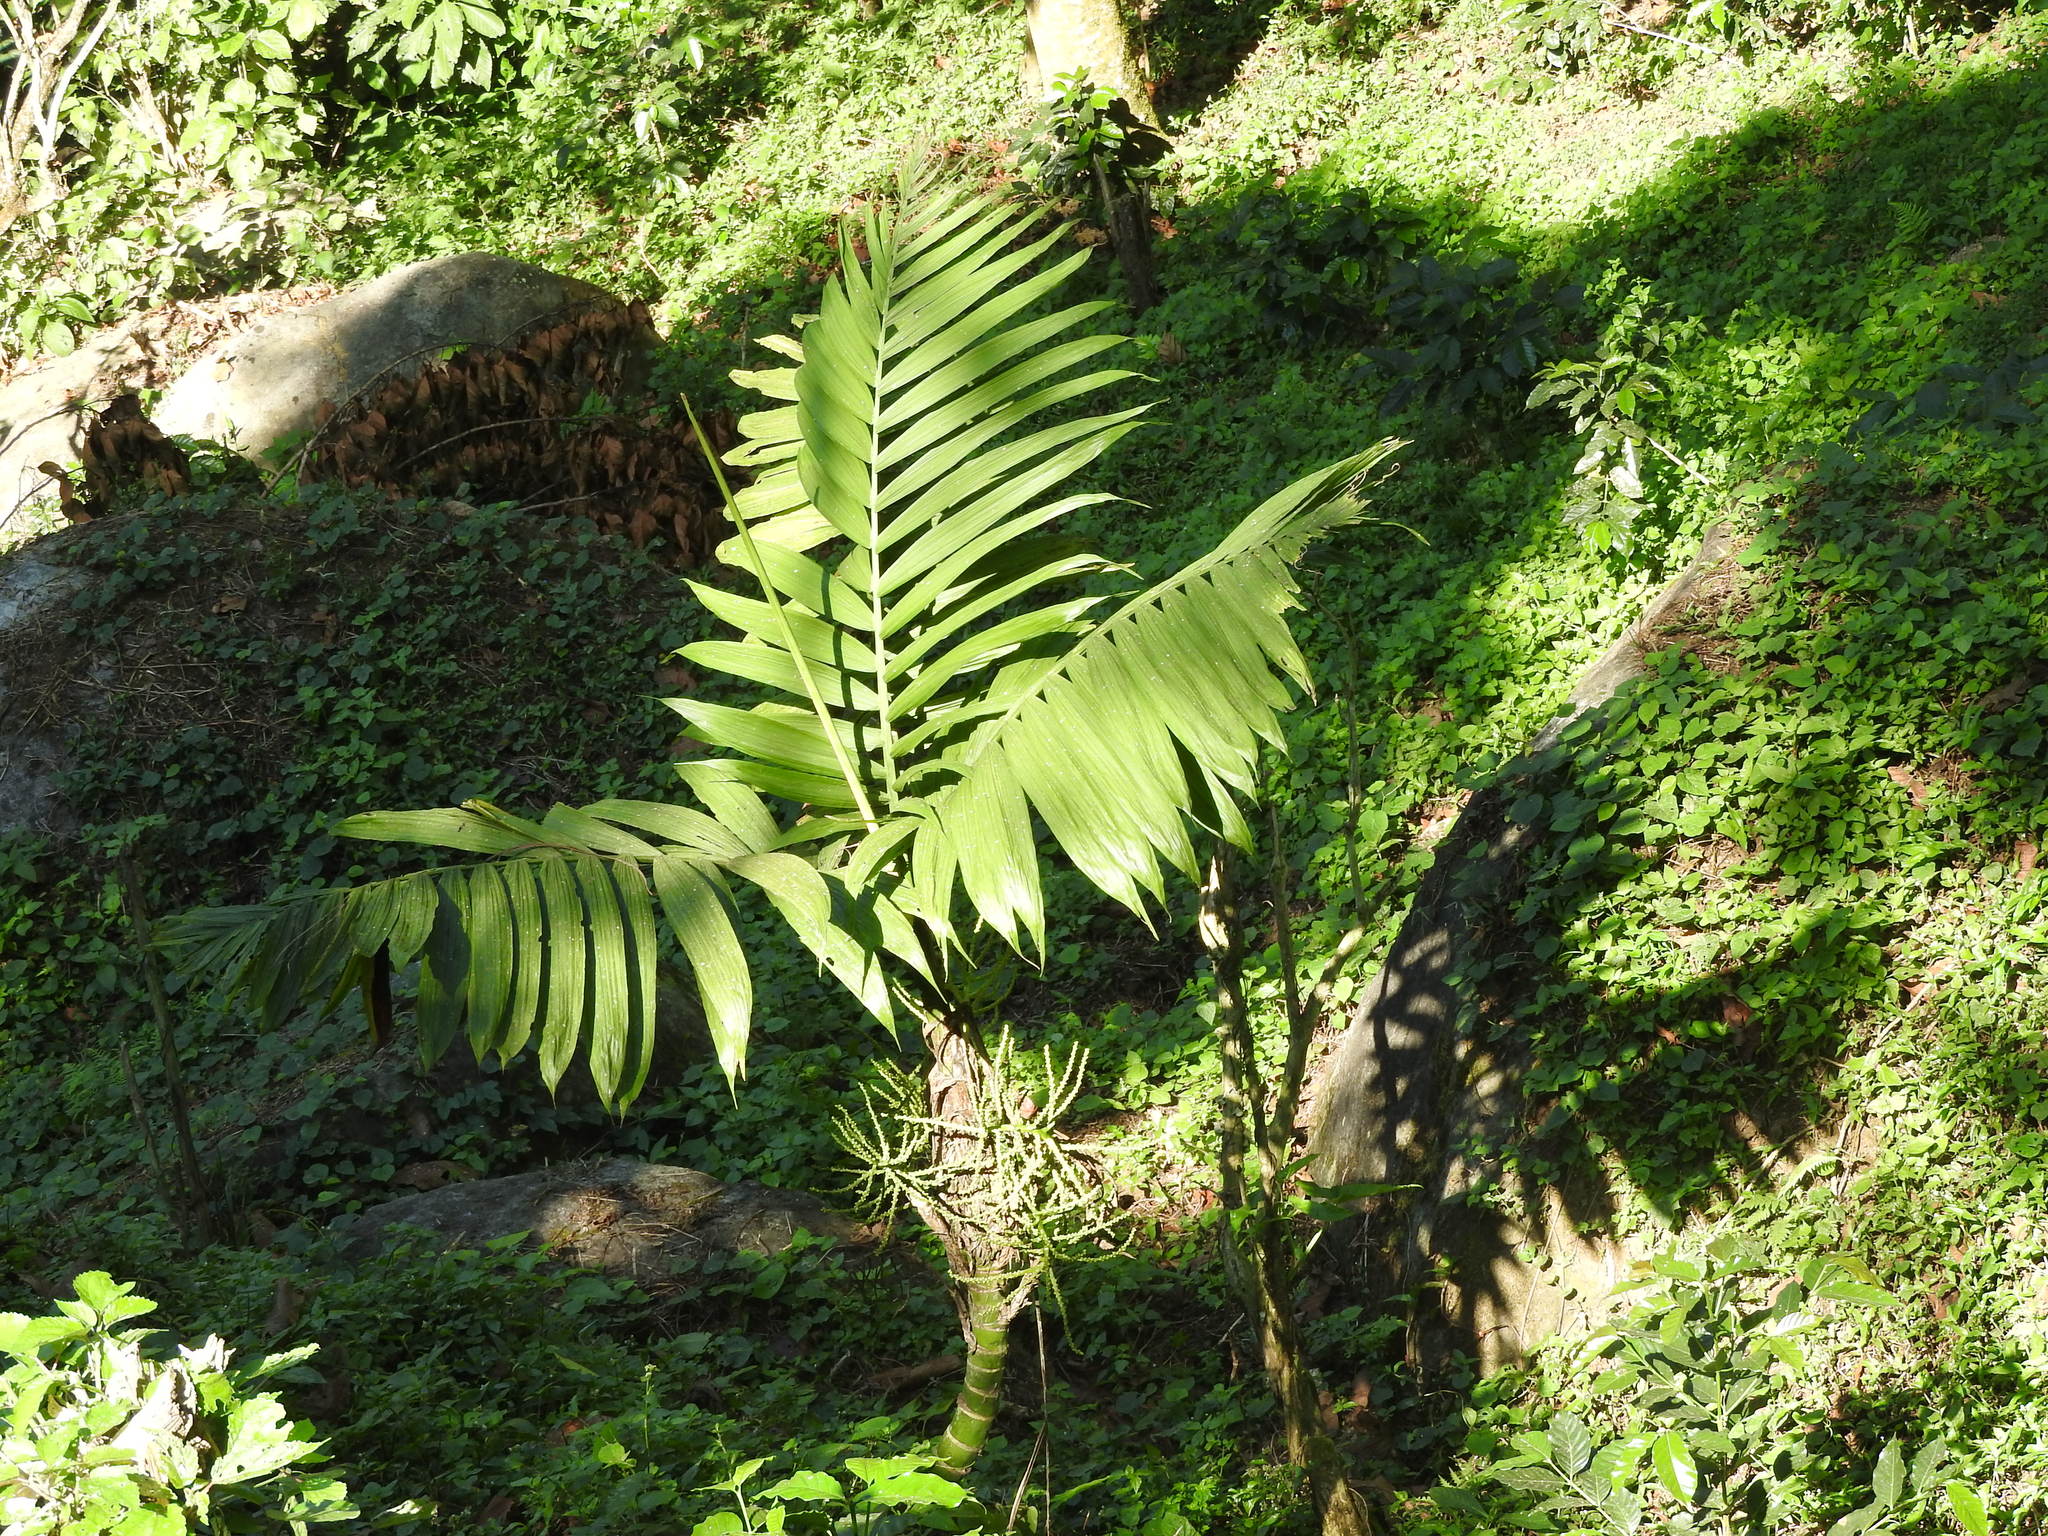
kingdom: Plantae
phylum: Tracheophyta
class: Liliopsida
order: Arecales
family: Arecaceae
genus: Chamaedorea
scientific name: Chamaedorea alternans
